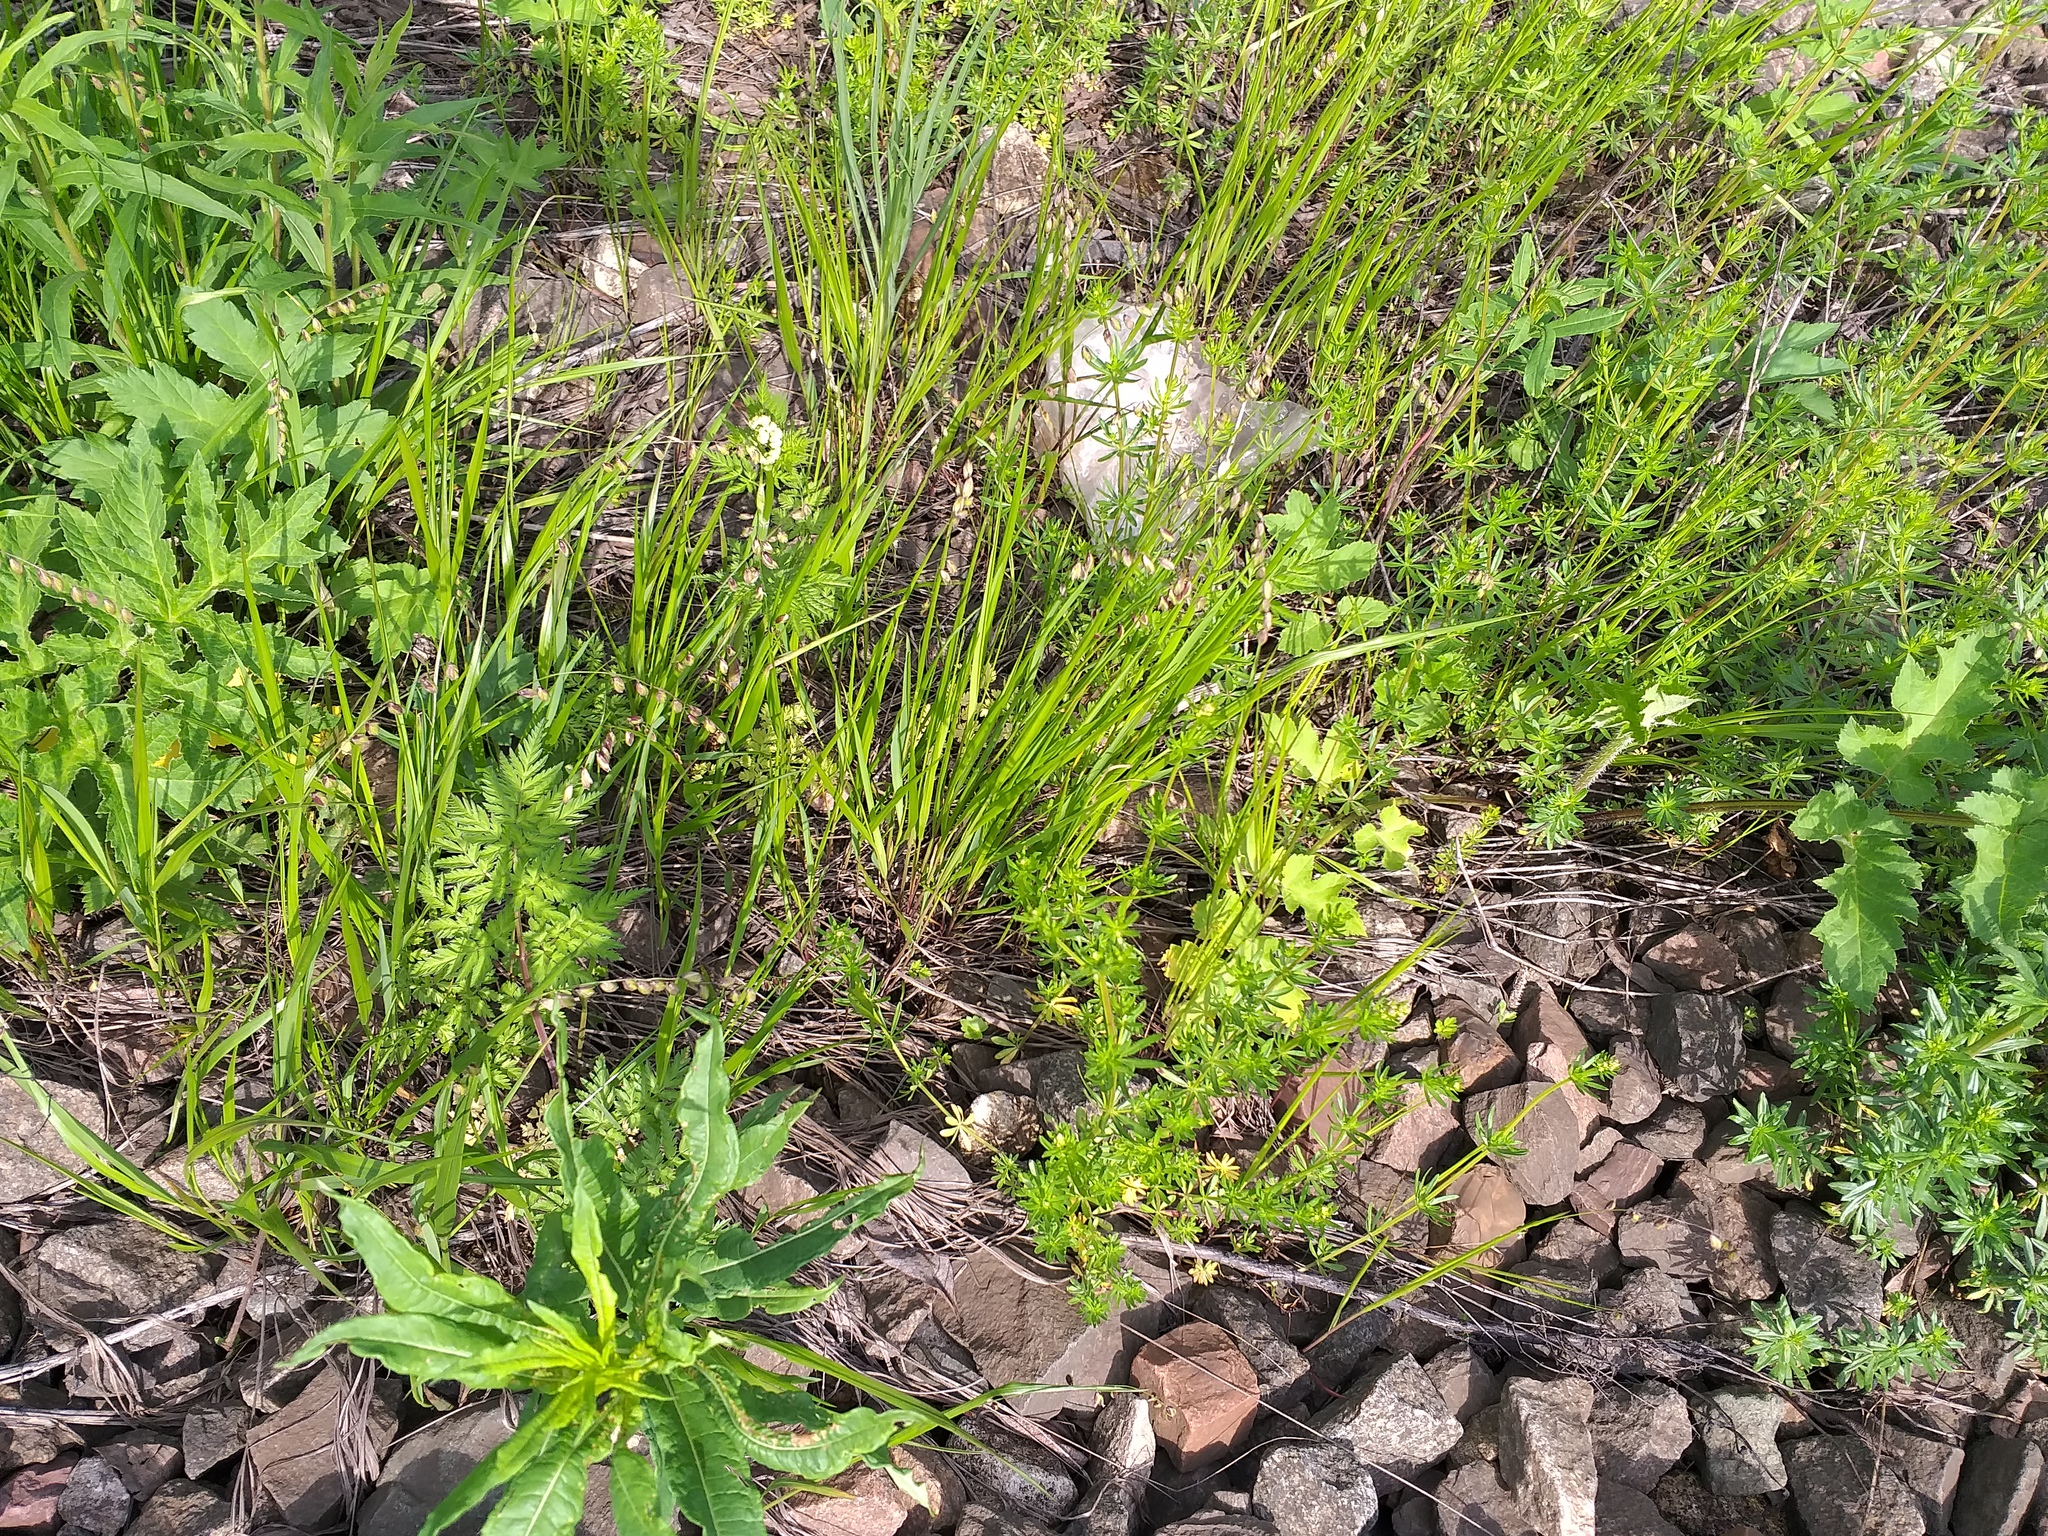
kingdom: Plantae
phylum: Tracheophyta
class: Liliopsida
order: Poales
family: Poaceae
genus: Melica
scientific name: Melica nutans
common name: Mountain melick
